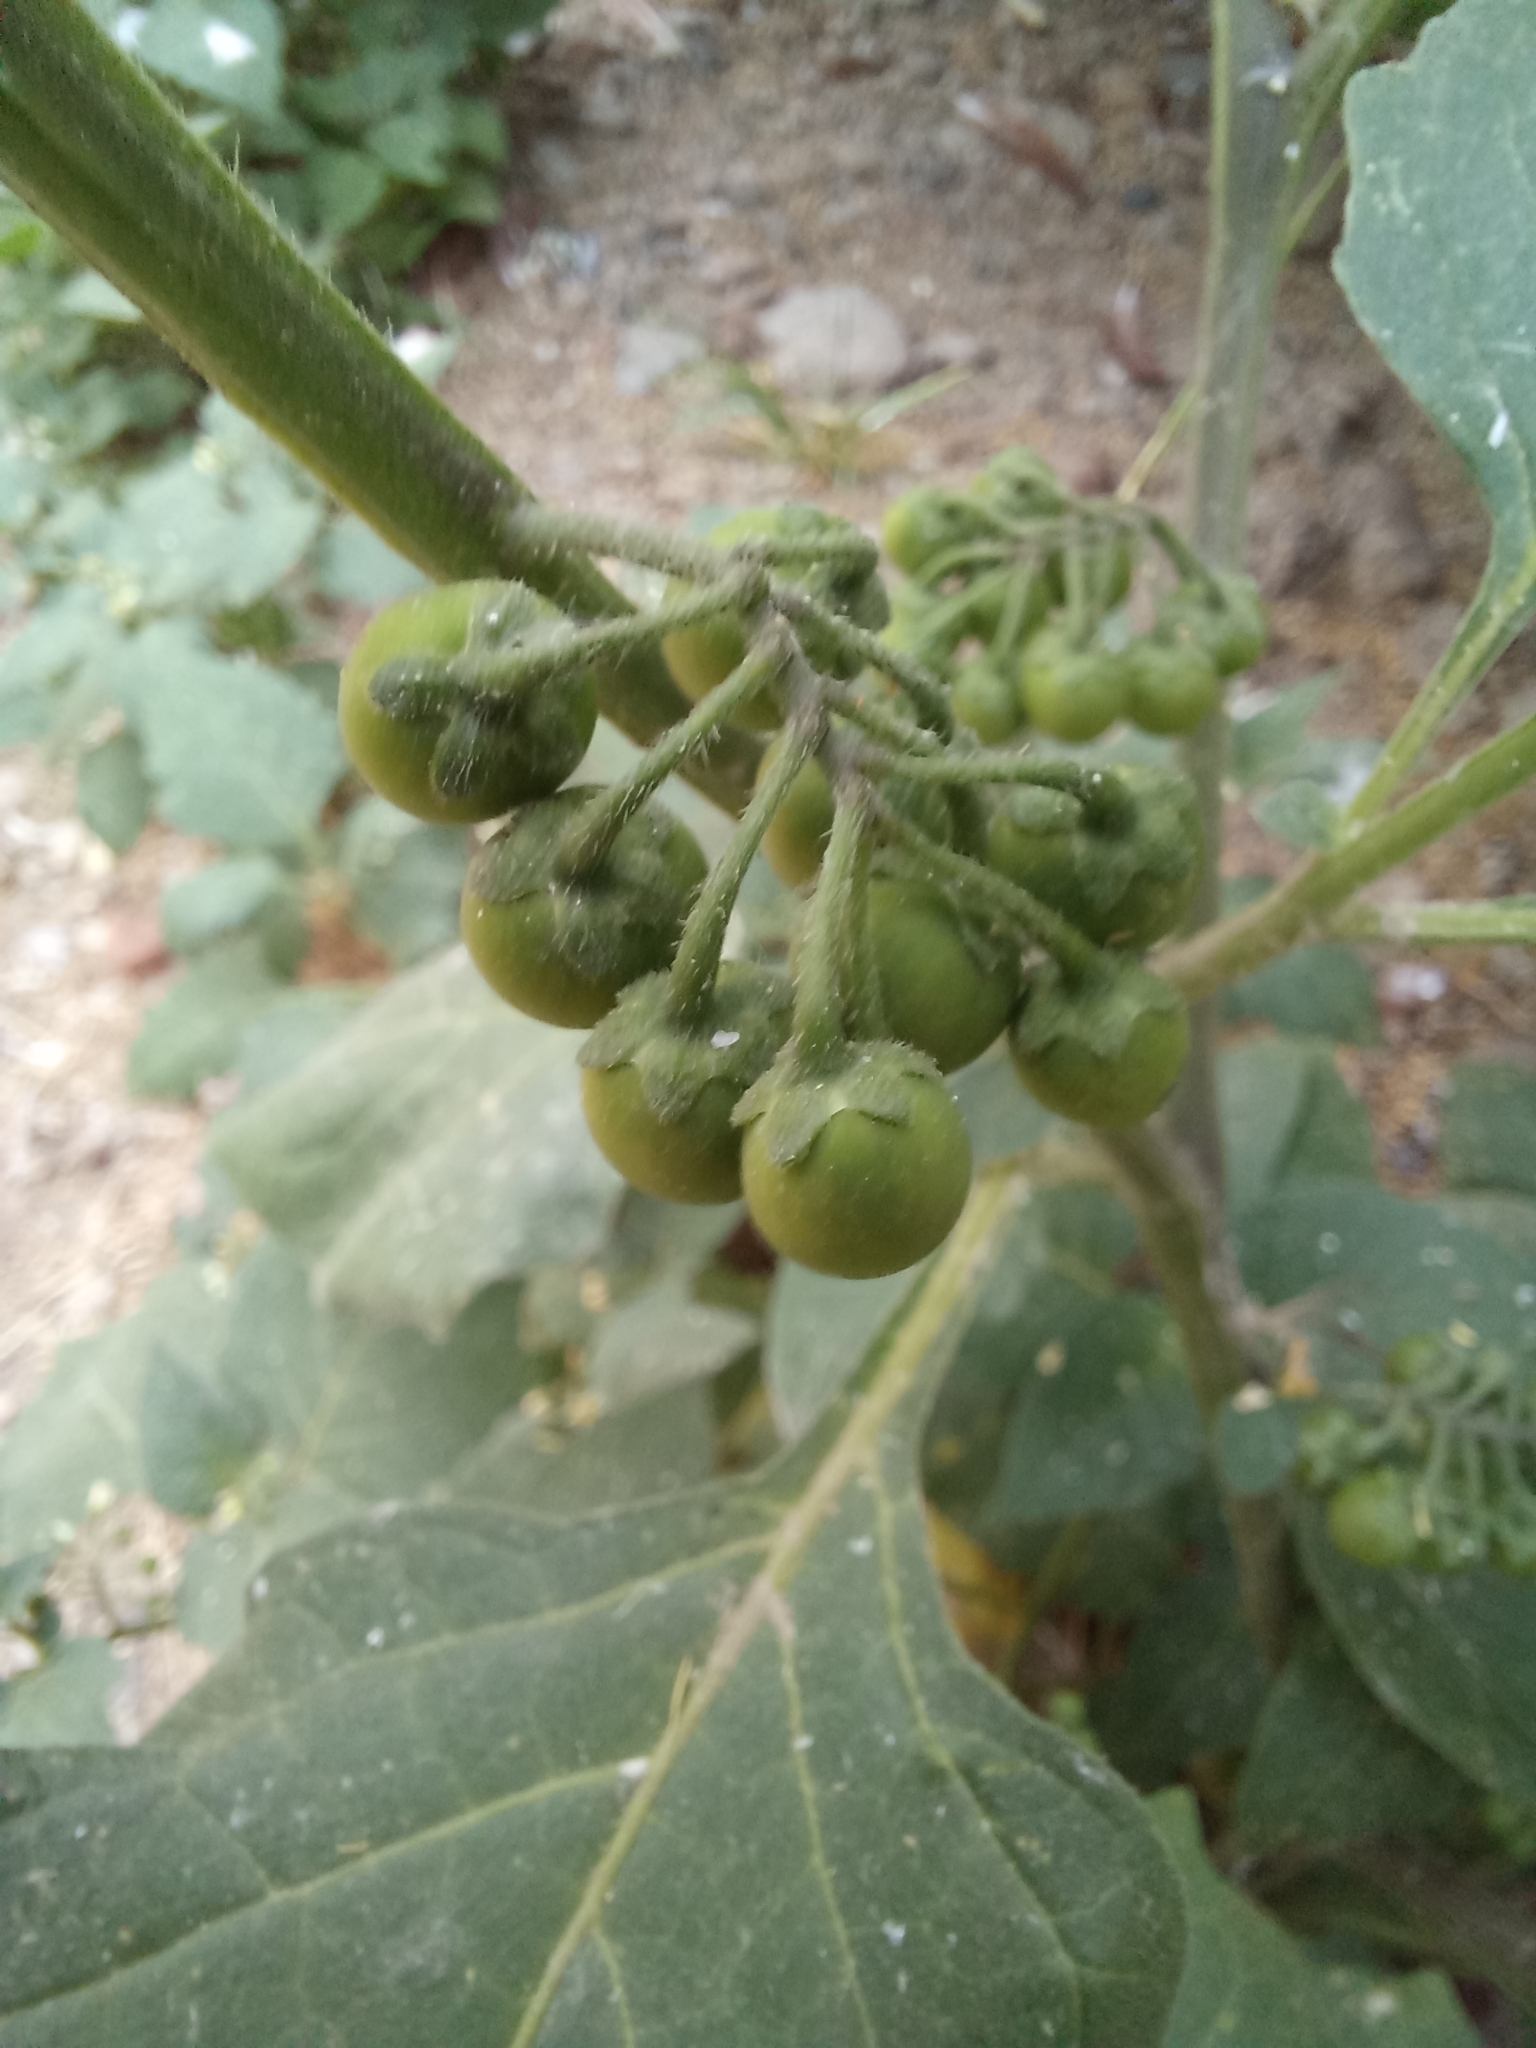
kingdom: Plantae
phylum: Tracheophyta
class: Magnoliopsida
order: Solanales
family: Solanaceae
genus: Solanum
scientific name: Solanum nigrum
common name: Black nightshade
